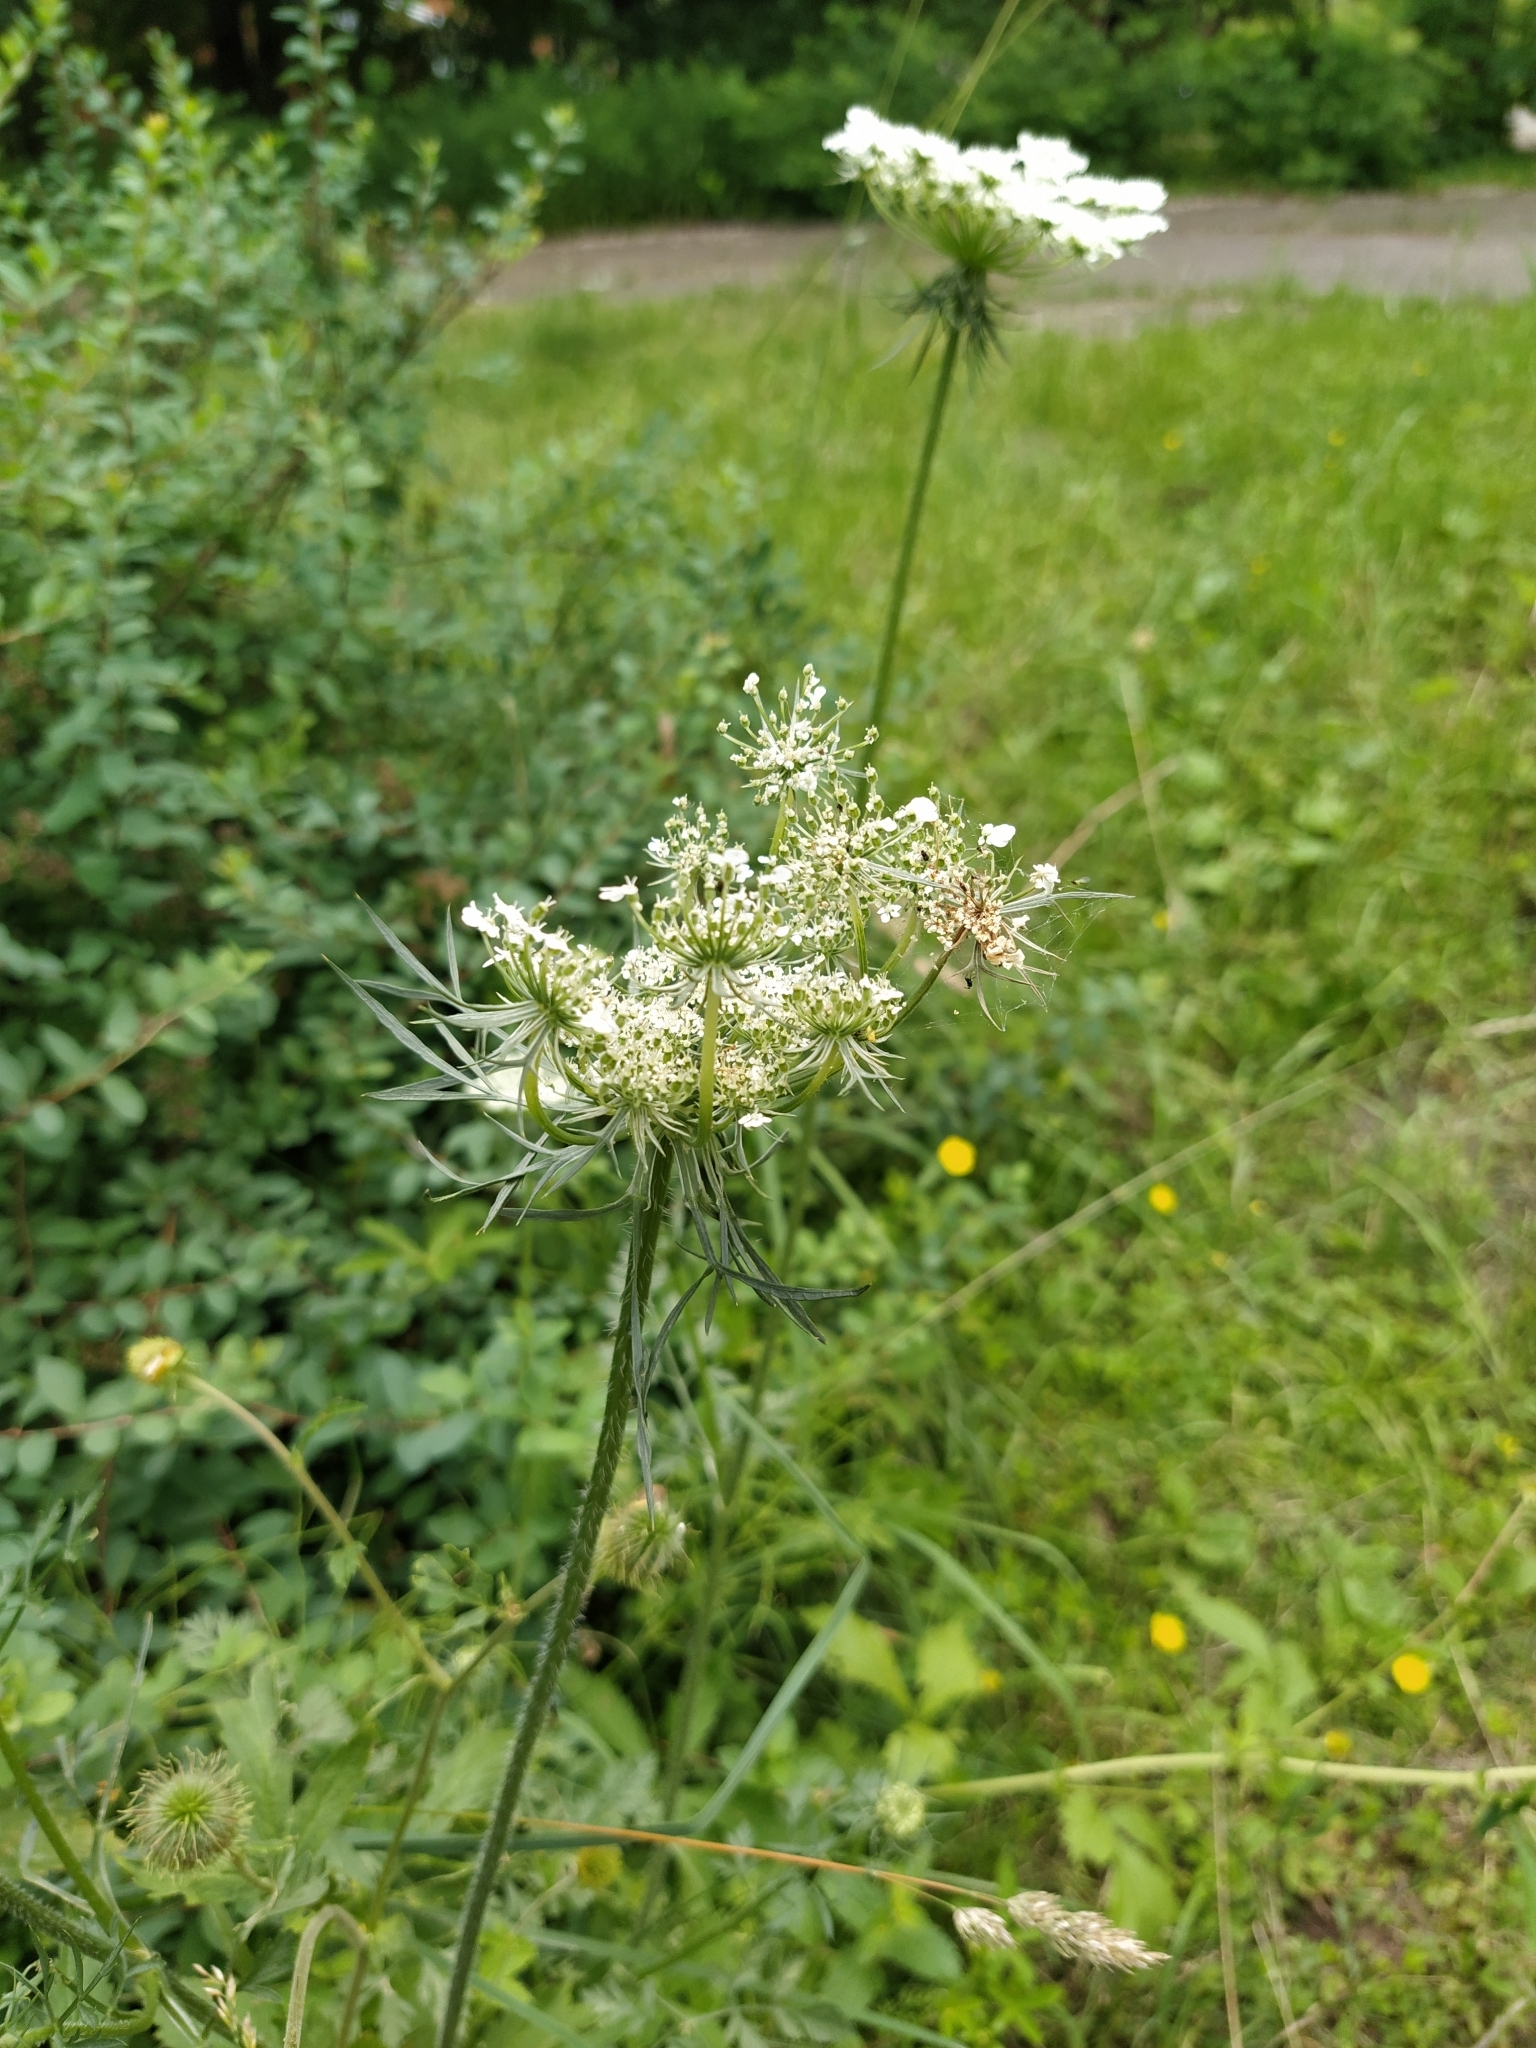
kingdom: Plantae
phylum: Tracheophyta
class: Magnoliopsida
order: Apiales
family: Apiaceae
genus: Daucus
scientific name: Daucus carota
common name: Wild carrot
